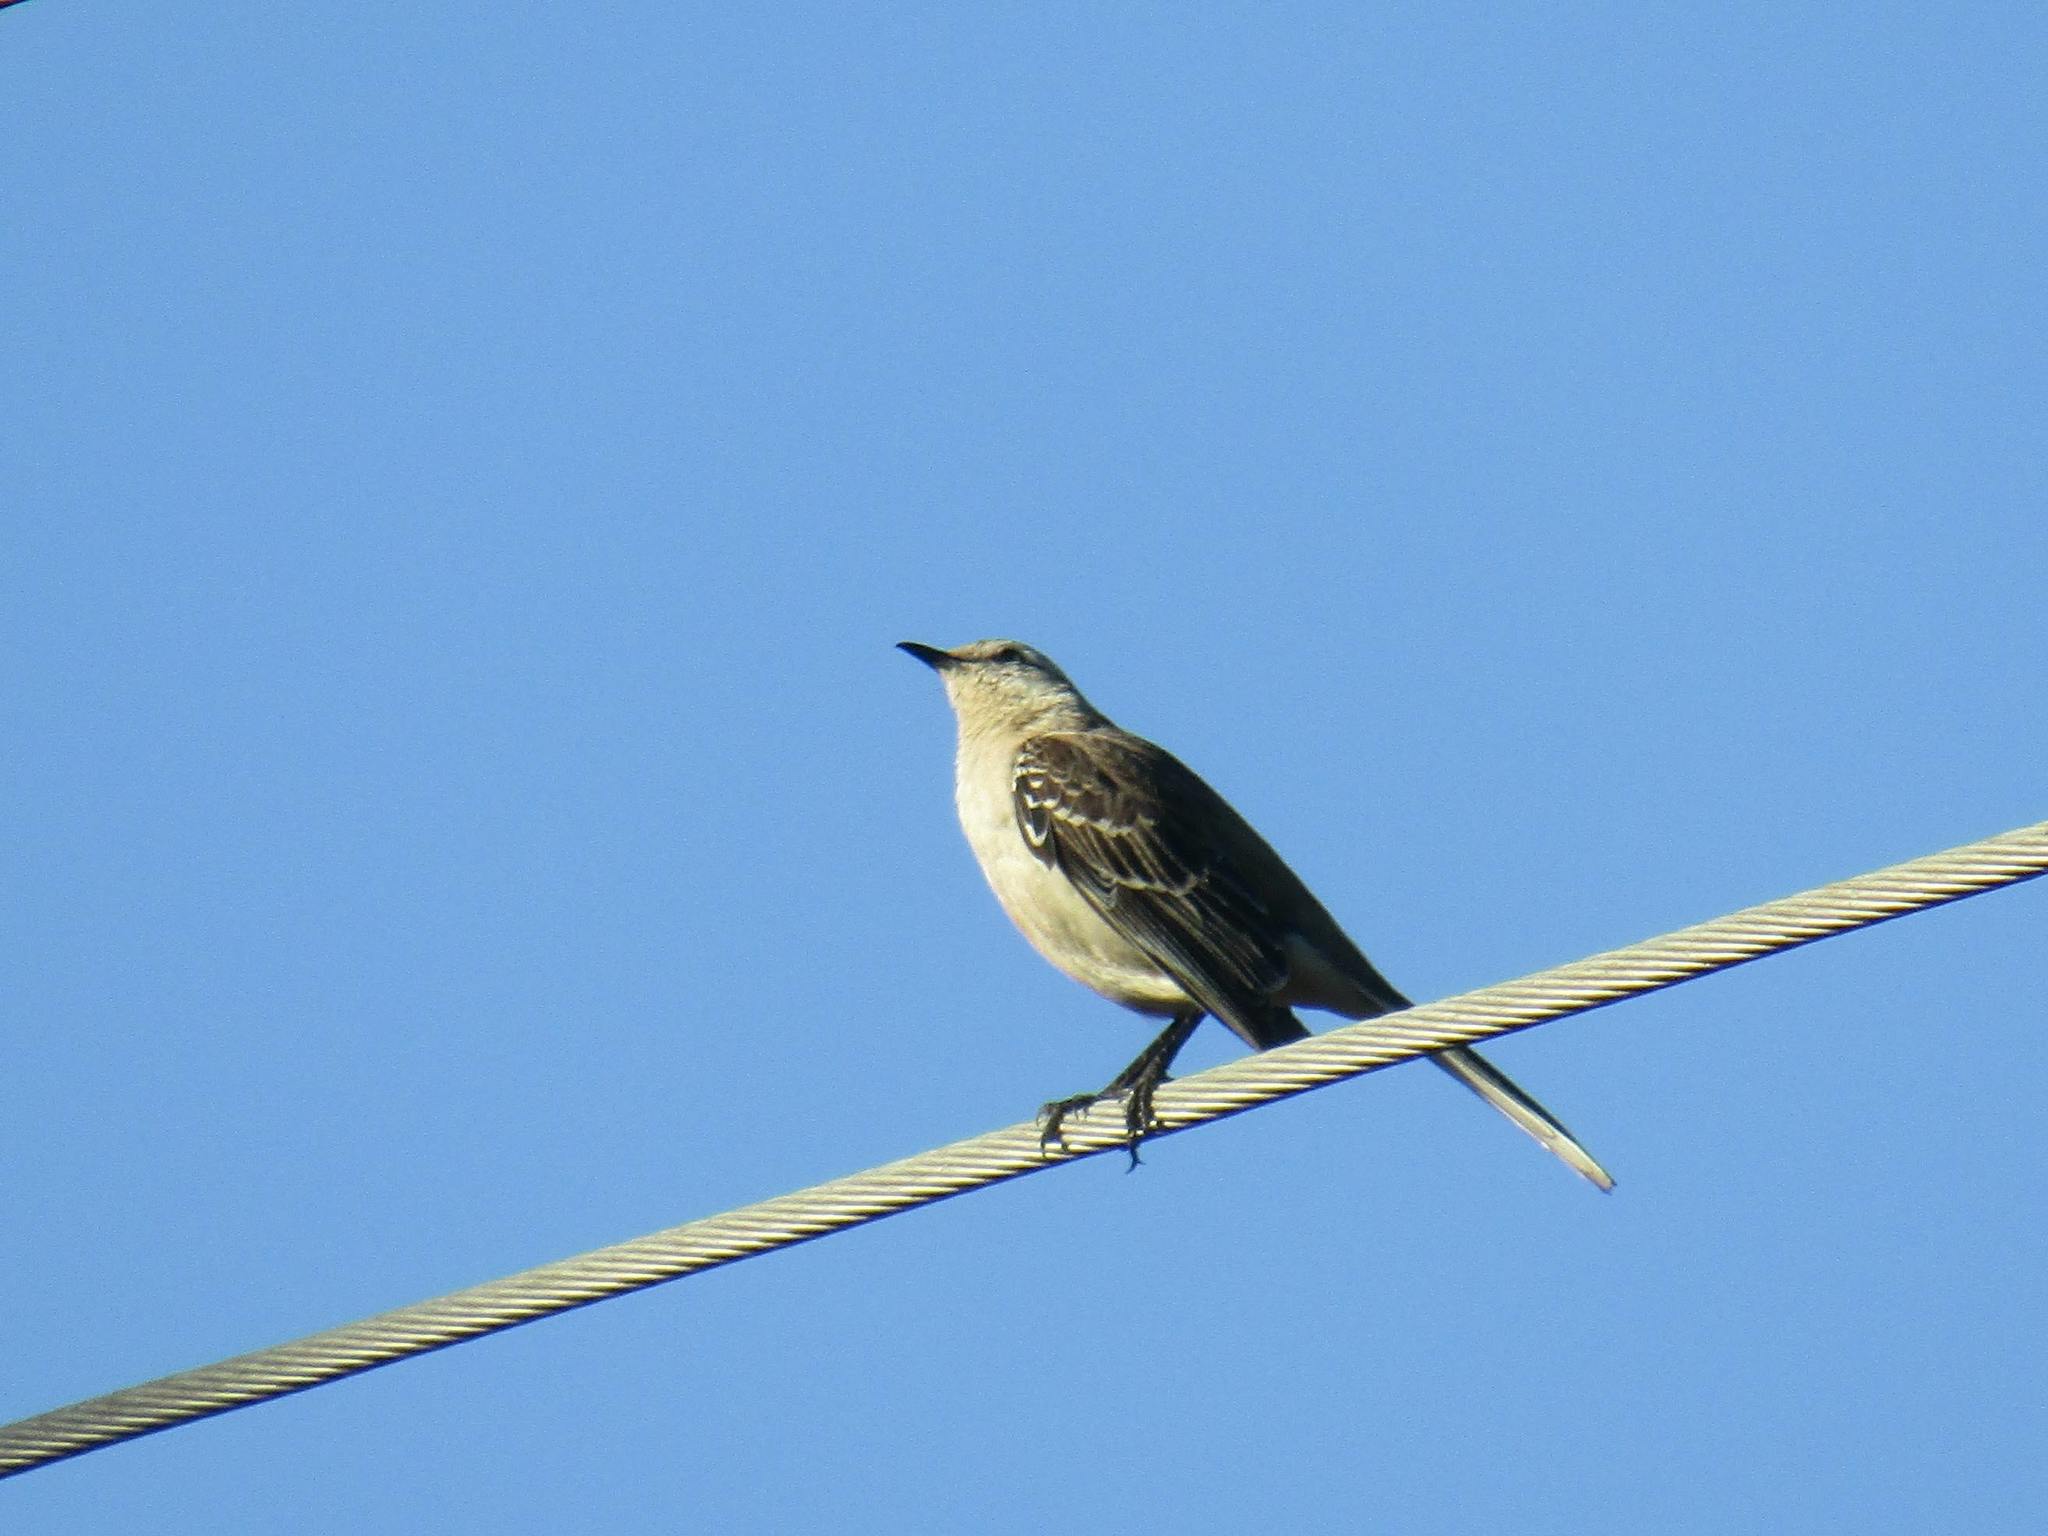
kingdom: Animalia
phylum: Chordata
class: Aves
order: Passeriformes
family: Mimidae
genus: Mimus
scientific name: Mimus saturninus
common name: Chalk-browed mockingbird
